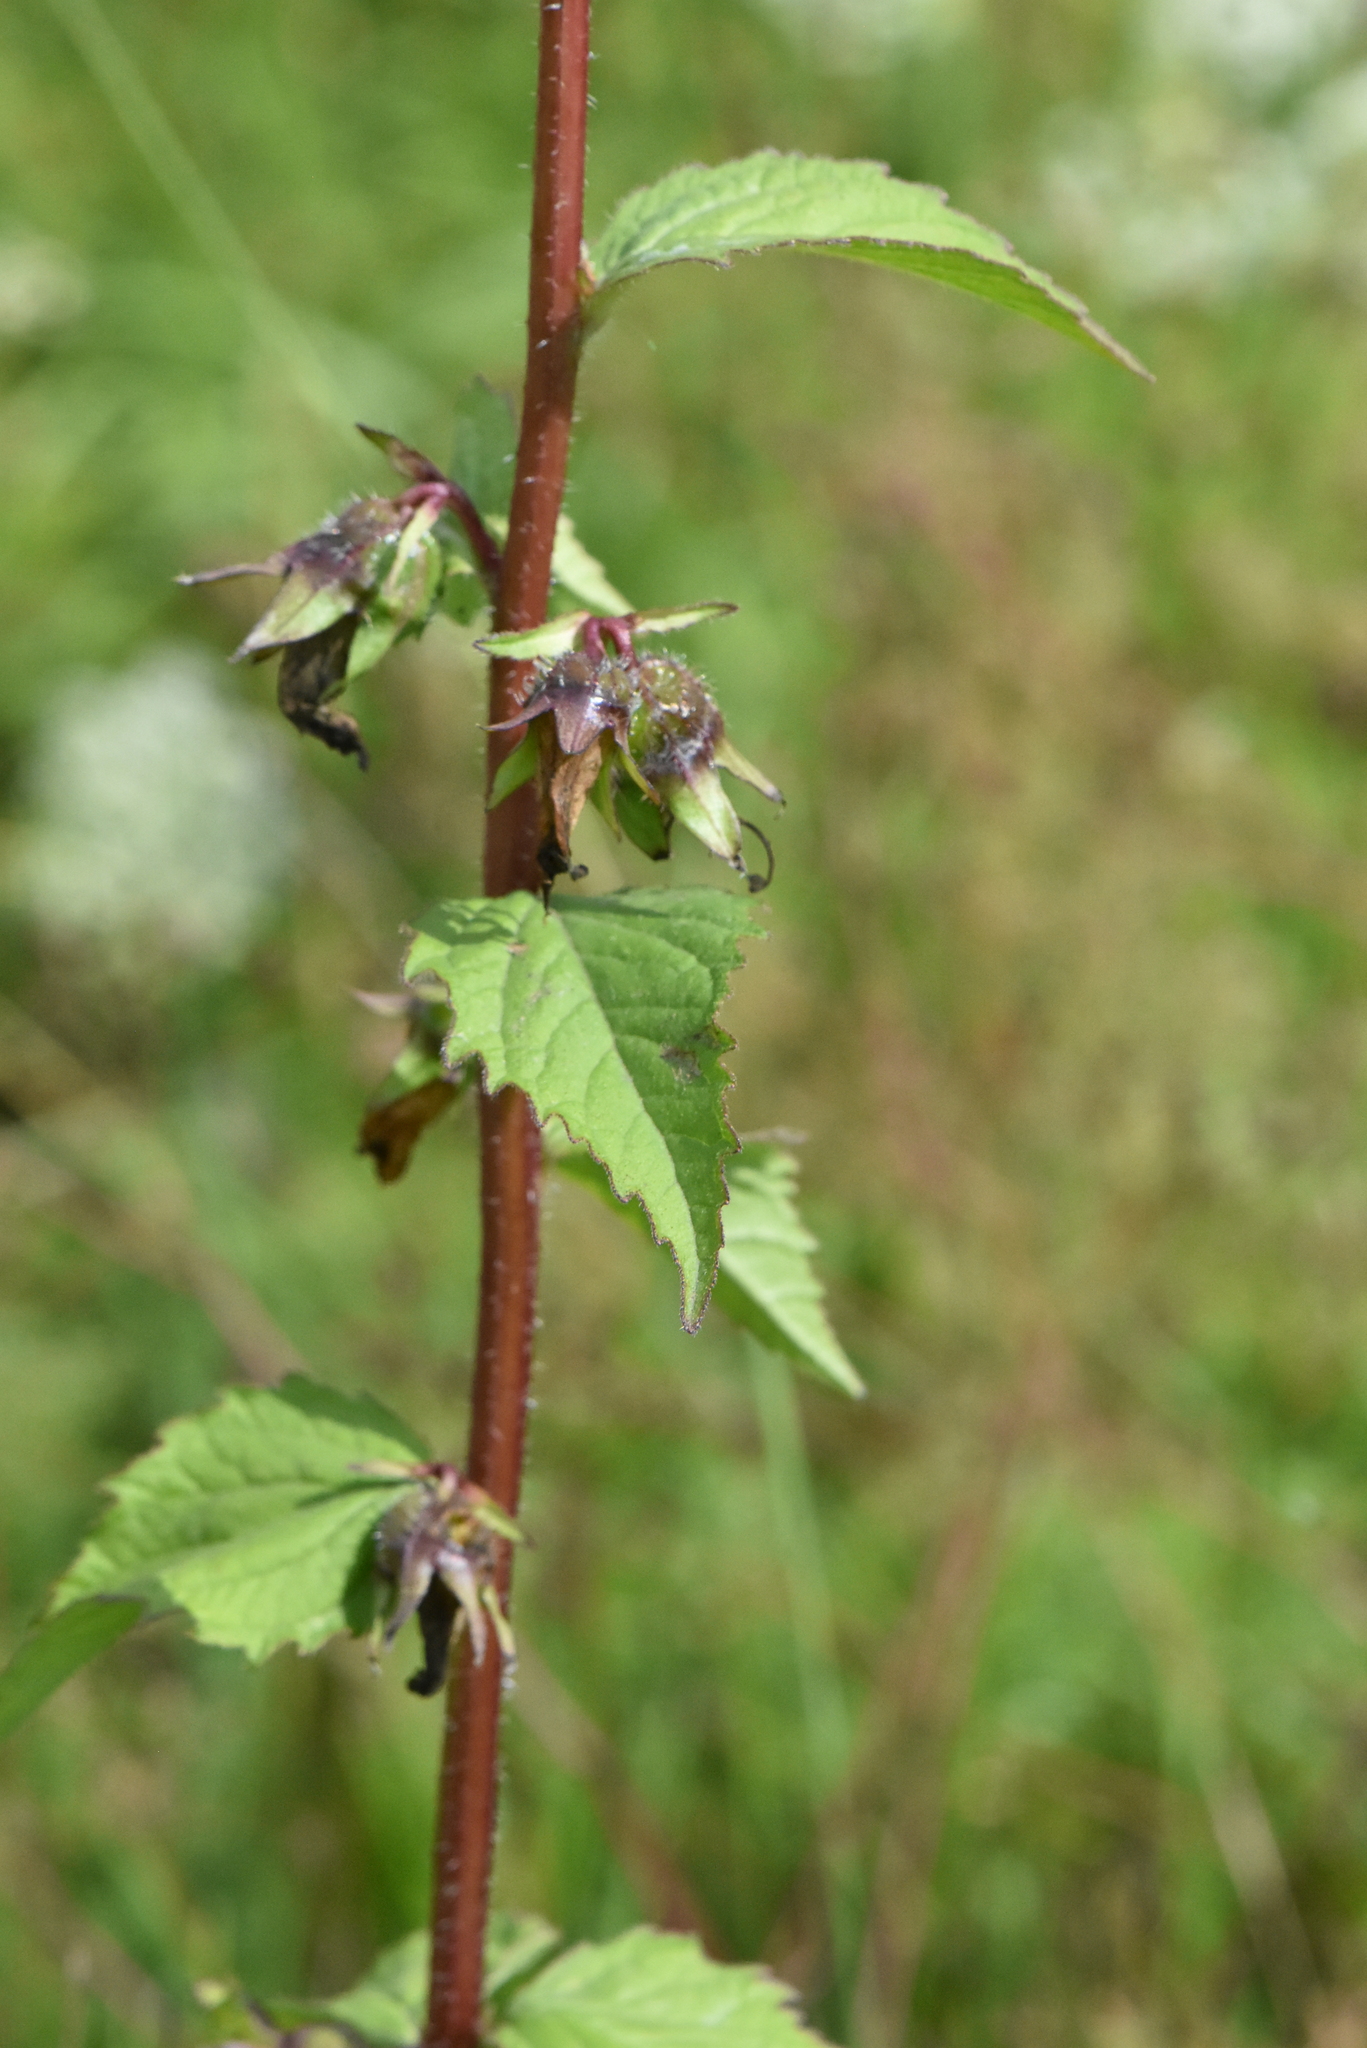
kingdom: Plantae
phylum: Tracheophyta
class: Magnoliopsida
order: Asterales
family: Campanulaceae
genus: Campanula
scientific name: Campanula trachelium
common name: Nettle-leaved bellflower
